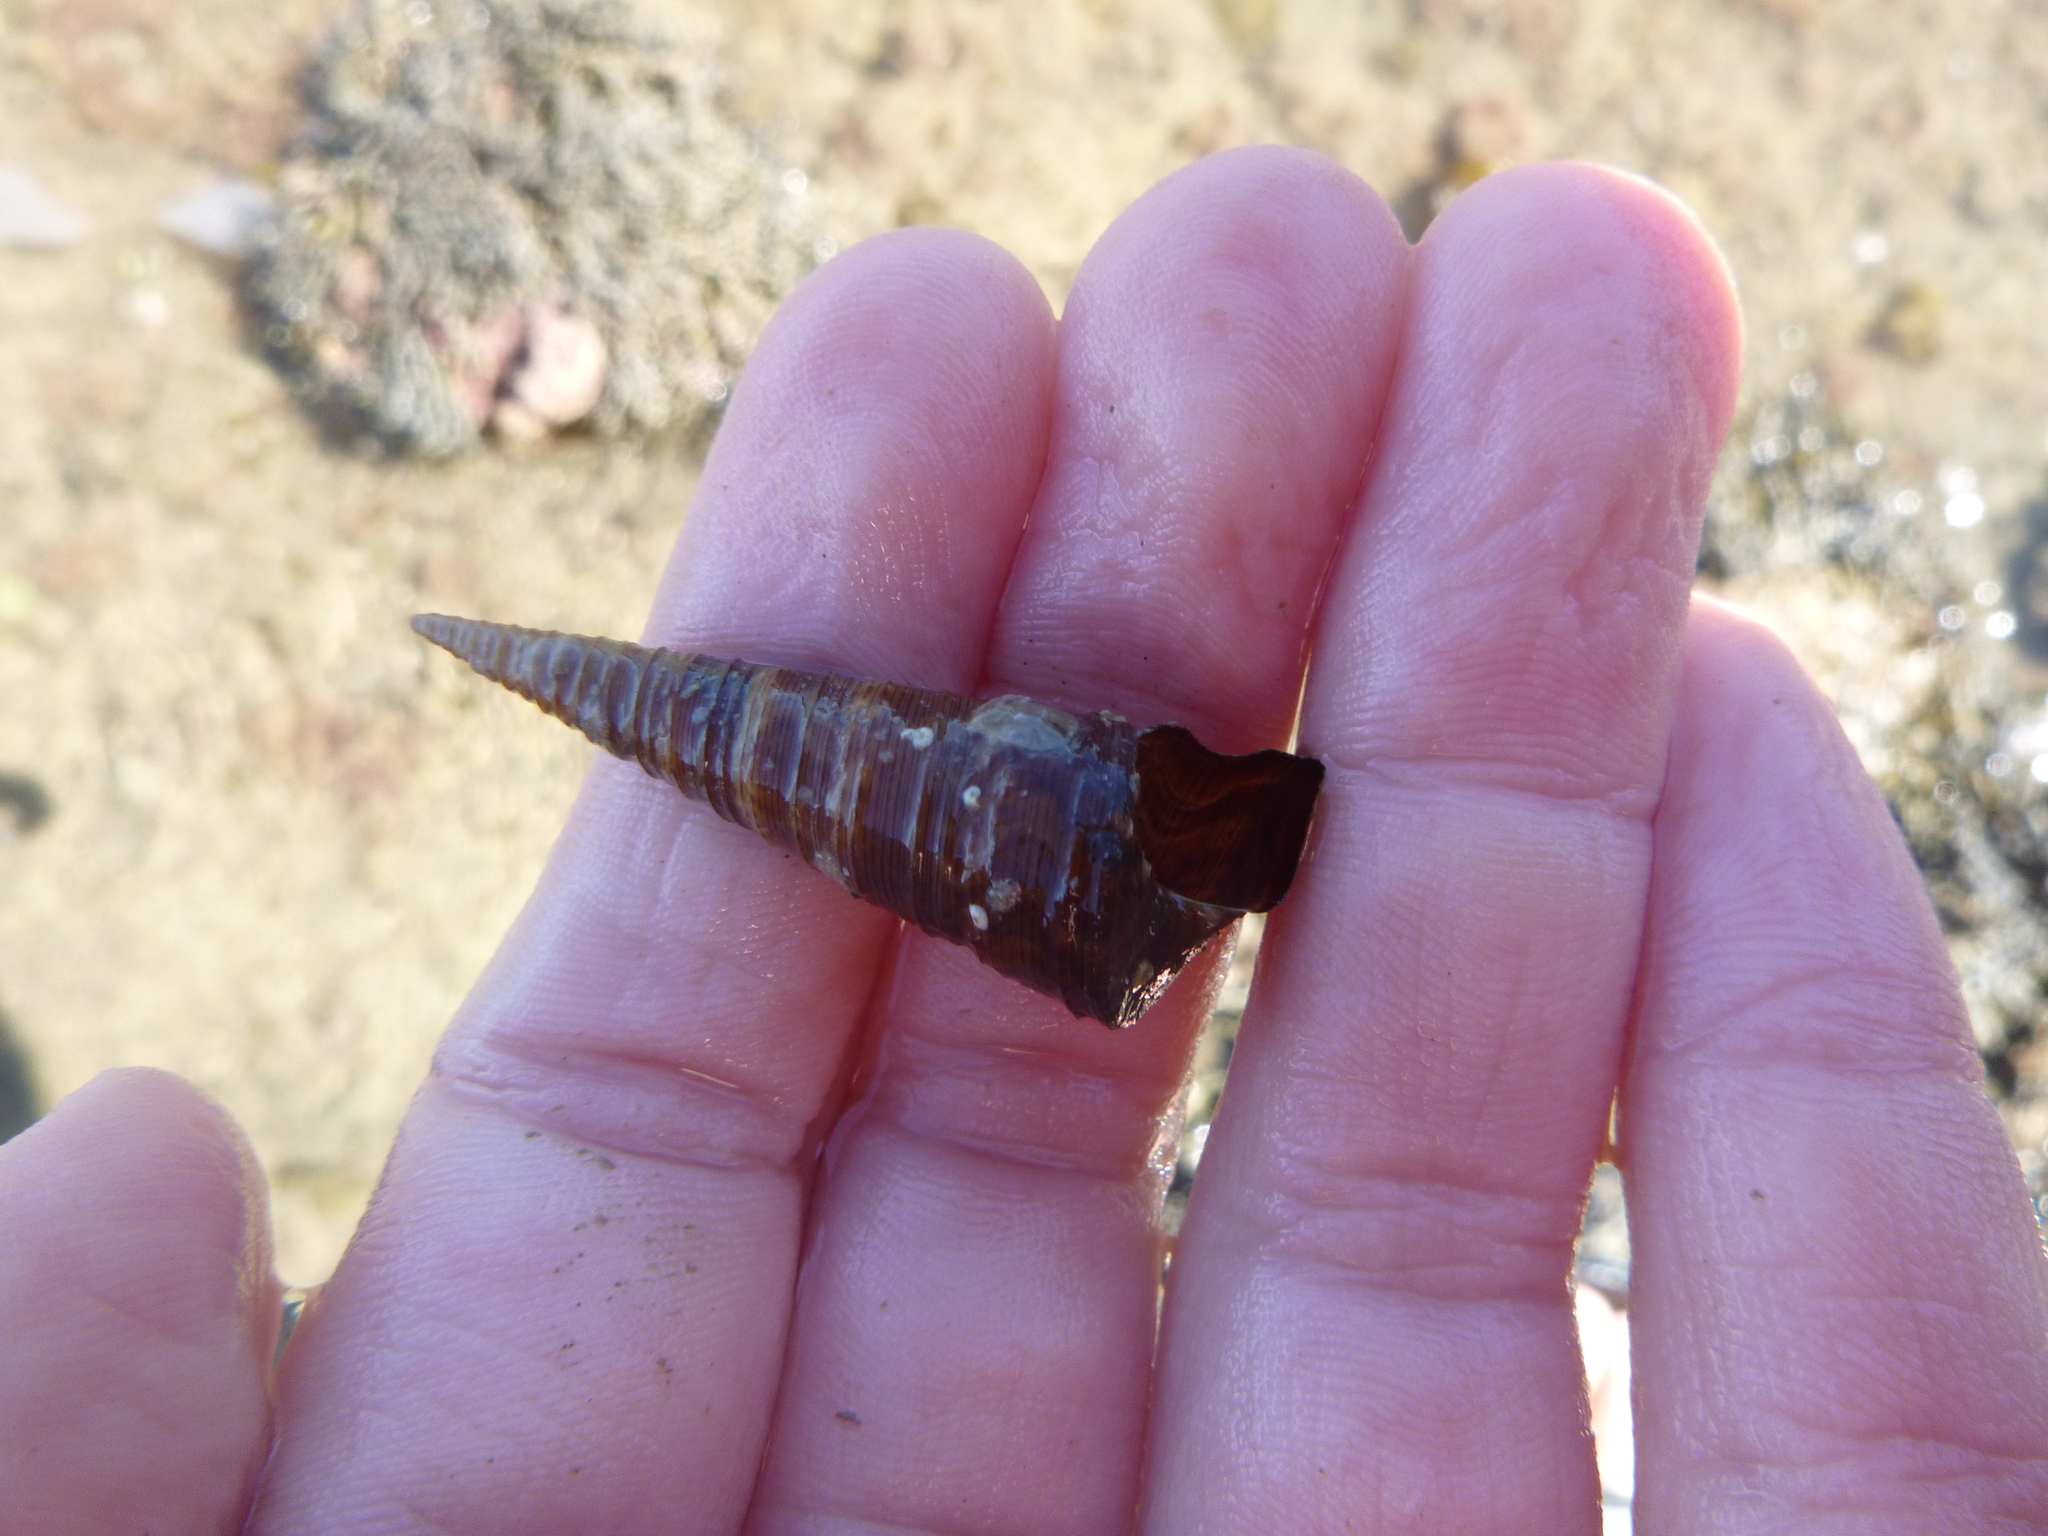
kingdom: Animalia
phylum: Mollusca
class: Gastropoda
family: Turritellidae
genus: Maoricolpus
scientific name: Maoricolpus roseus
